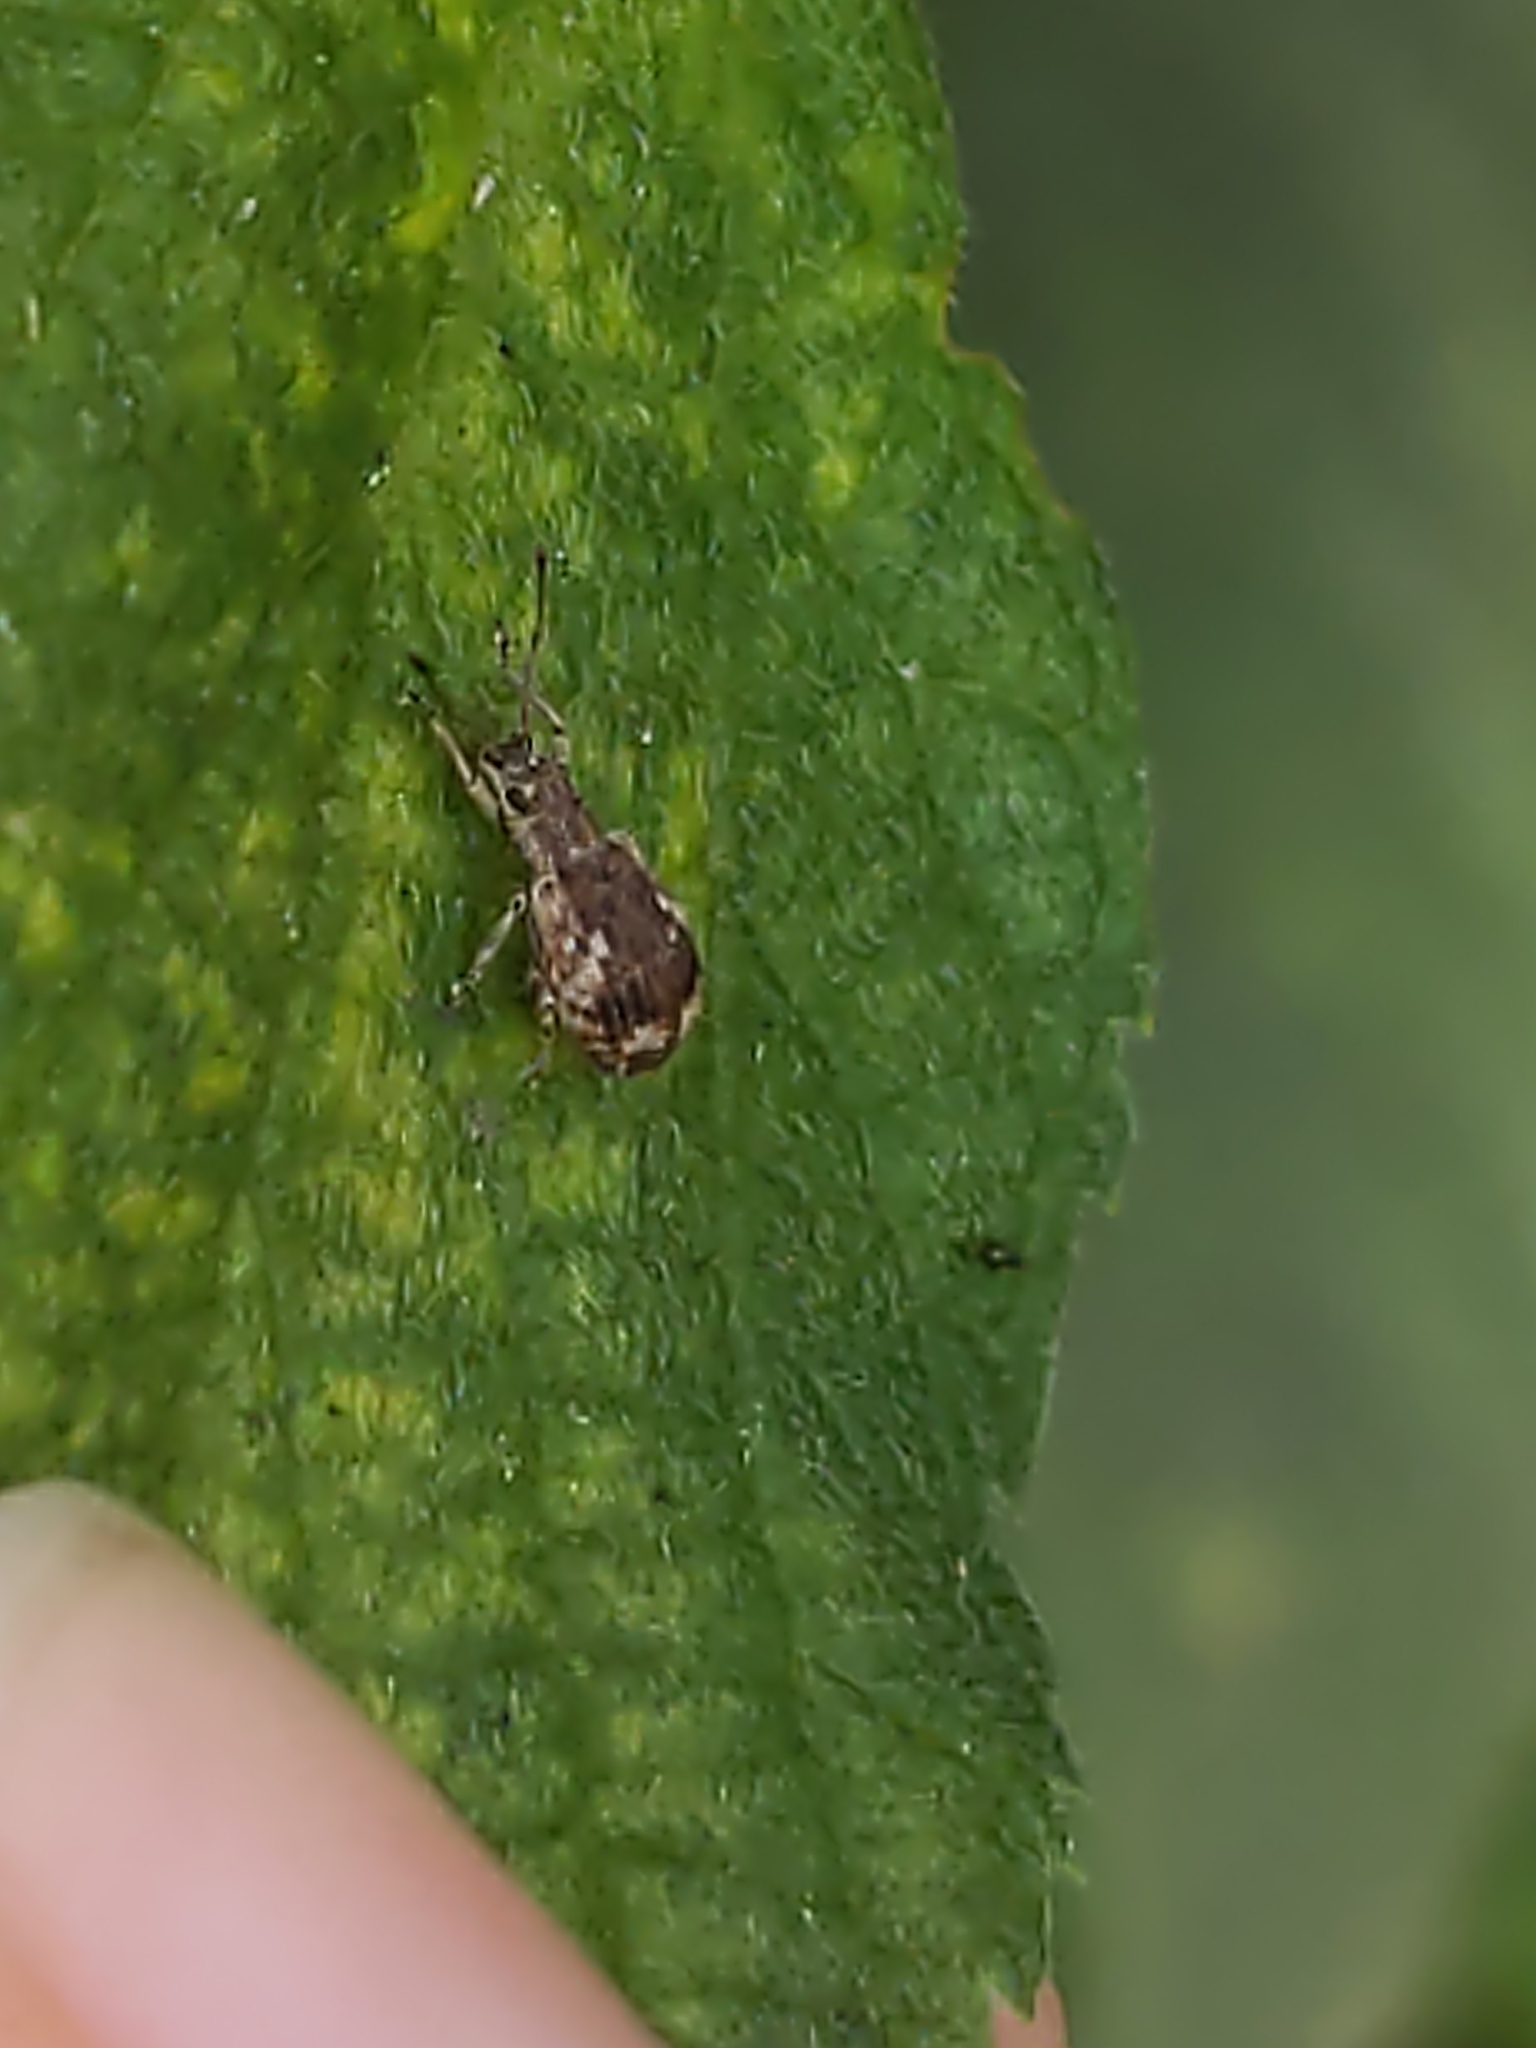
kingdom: Animalia
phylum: Arthropoda
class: Insecta
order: Coleoptera
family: Curculionidae
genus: Pseudoedophrys
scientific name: Pseudoedophrys hilleri
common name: Weevil
